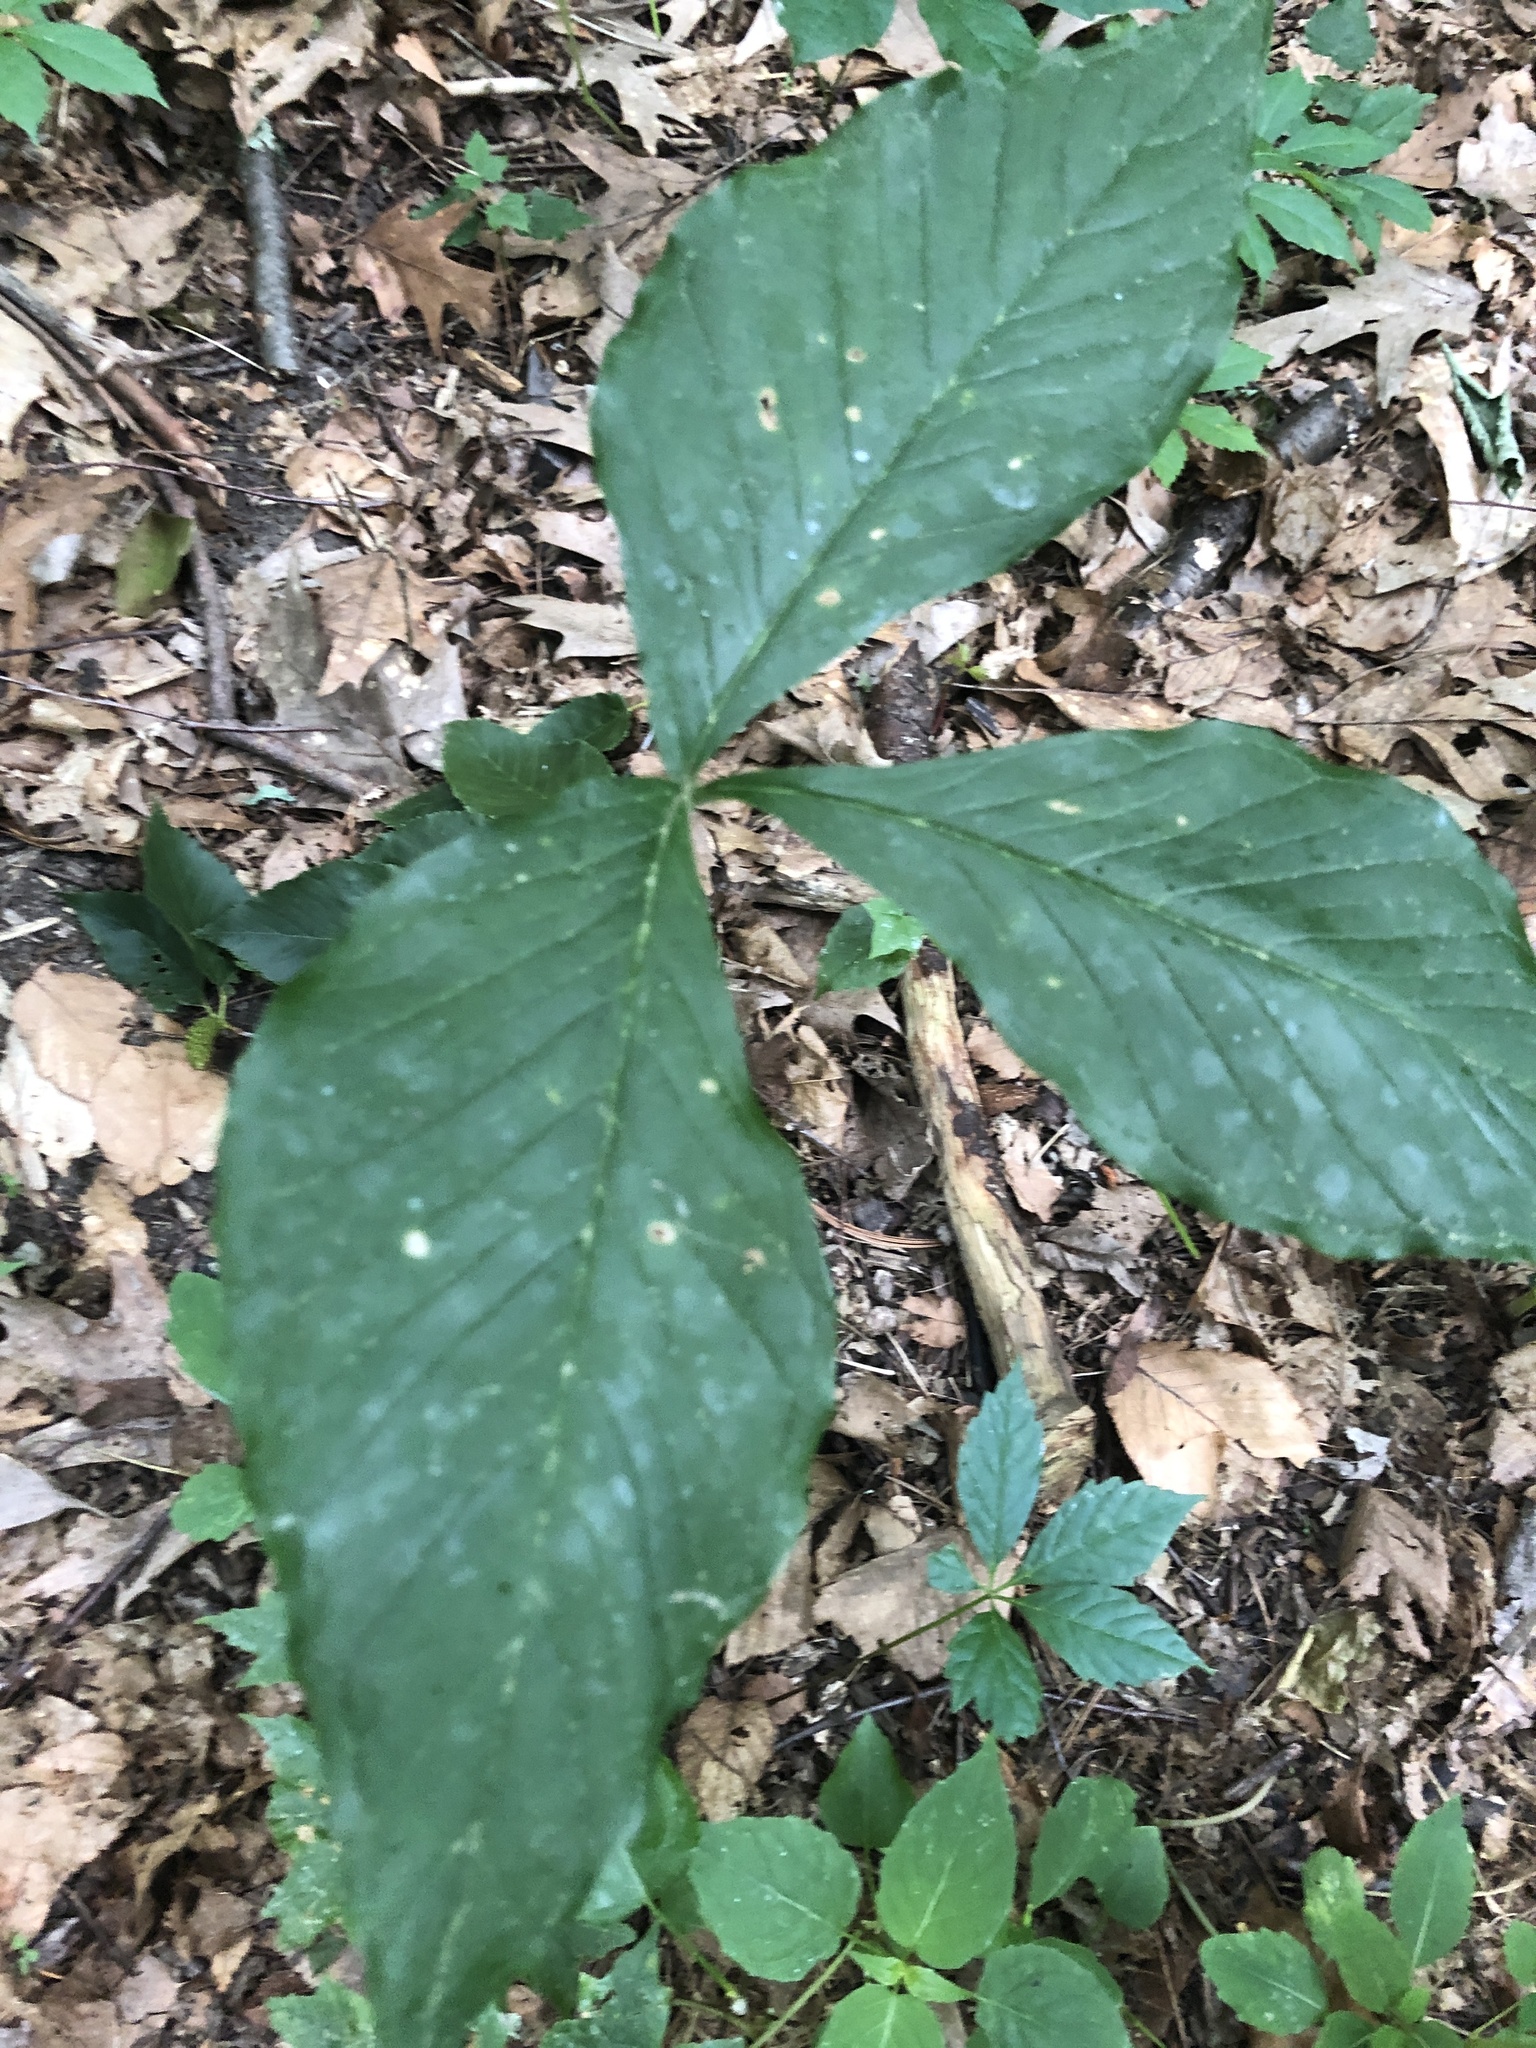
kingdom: Plantae
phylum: Tracheophyta
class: Liliopsida
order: Alismatales
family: Araceae
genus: Arisaema
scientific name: Arisaema triphyllum
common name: Jack-in-the-pulpit
